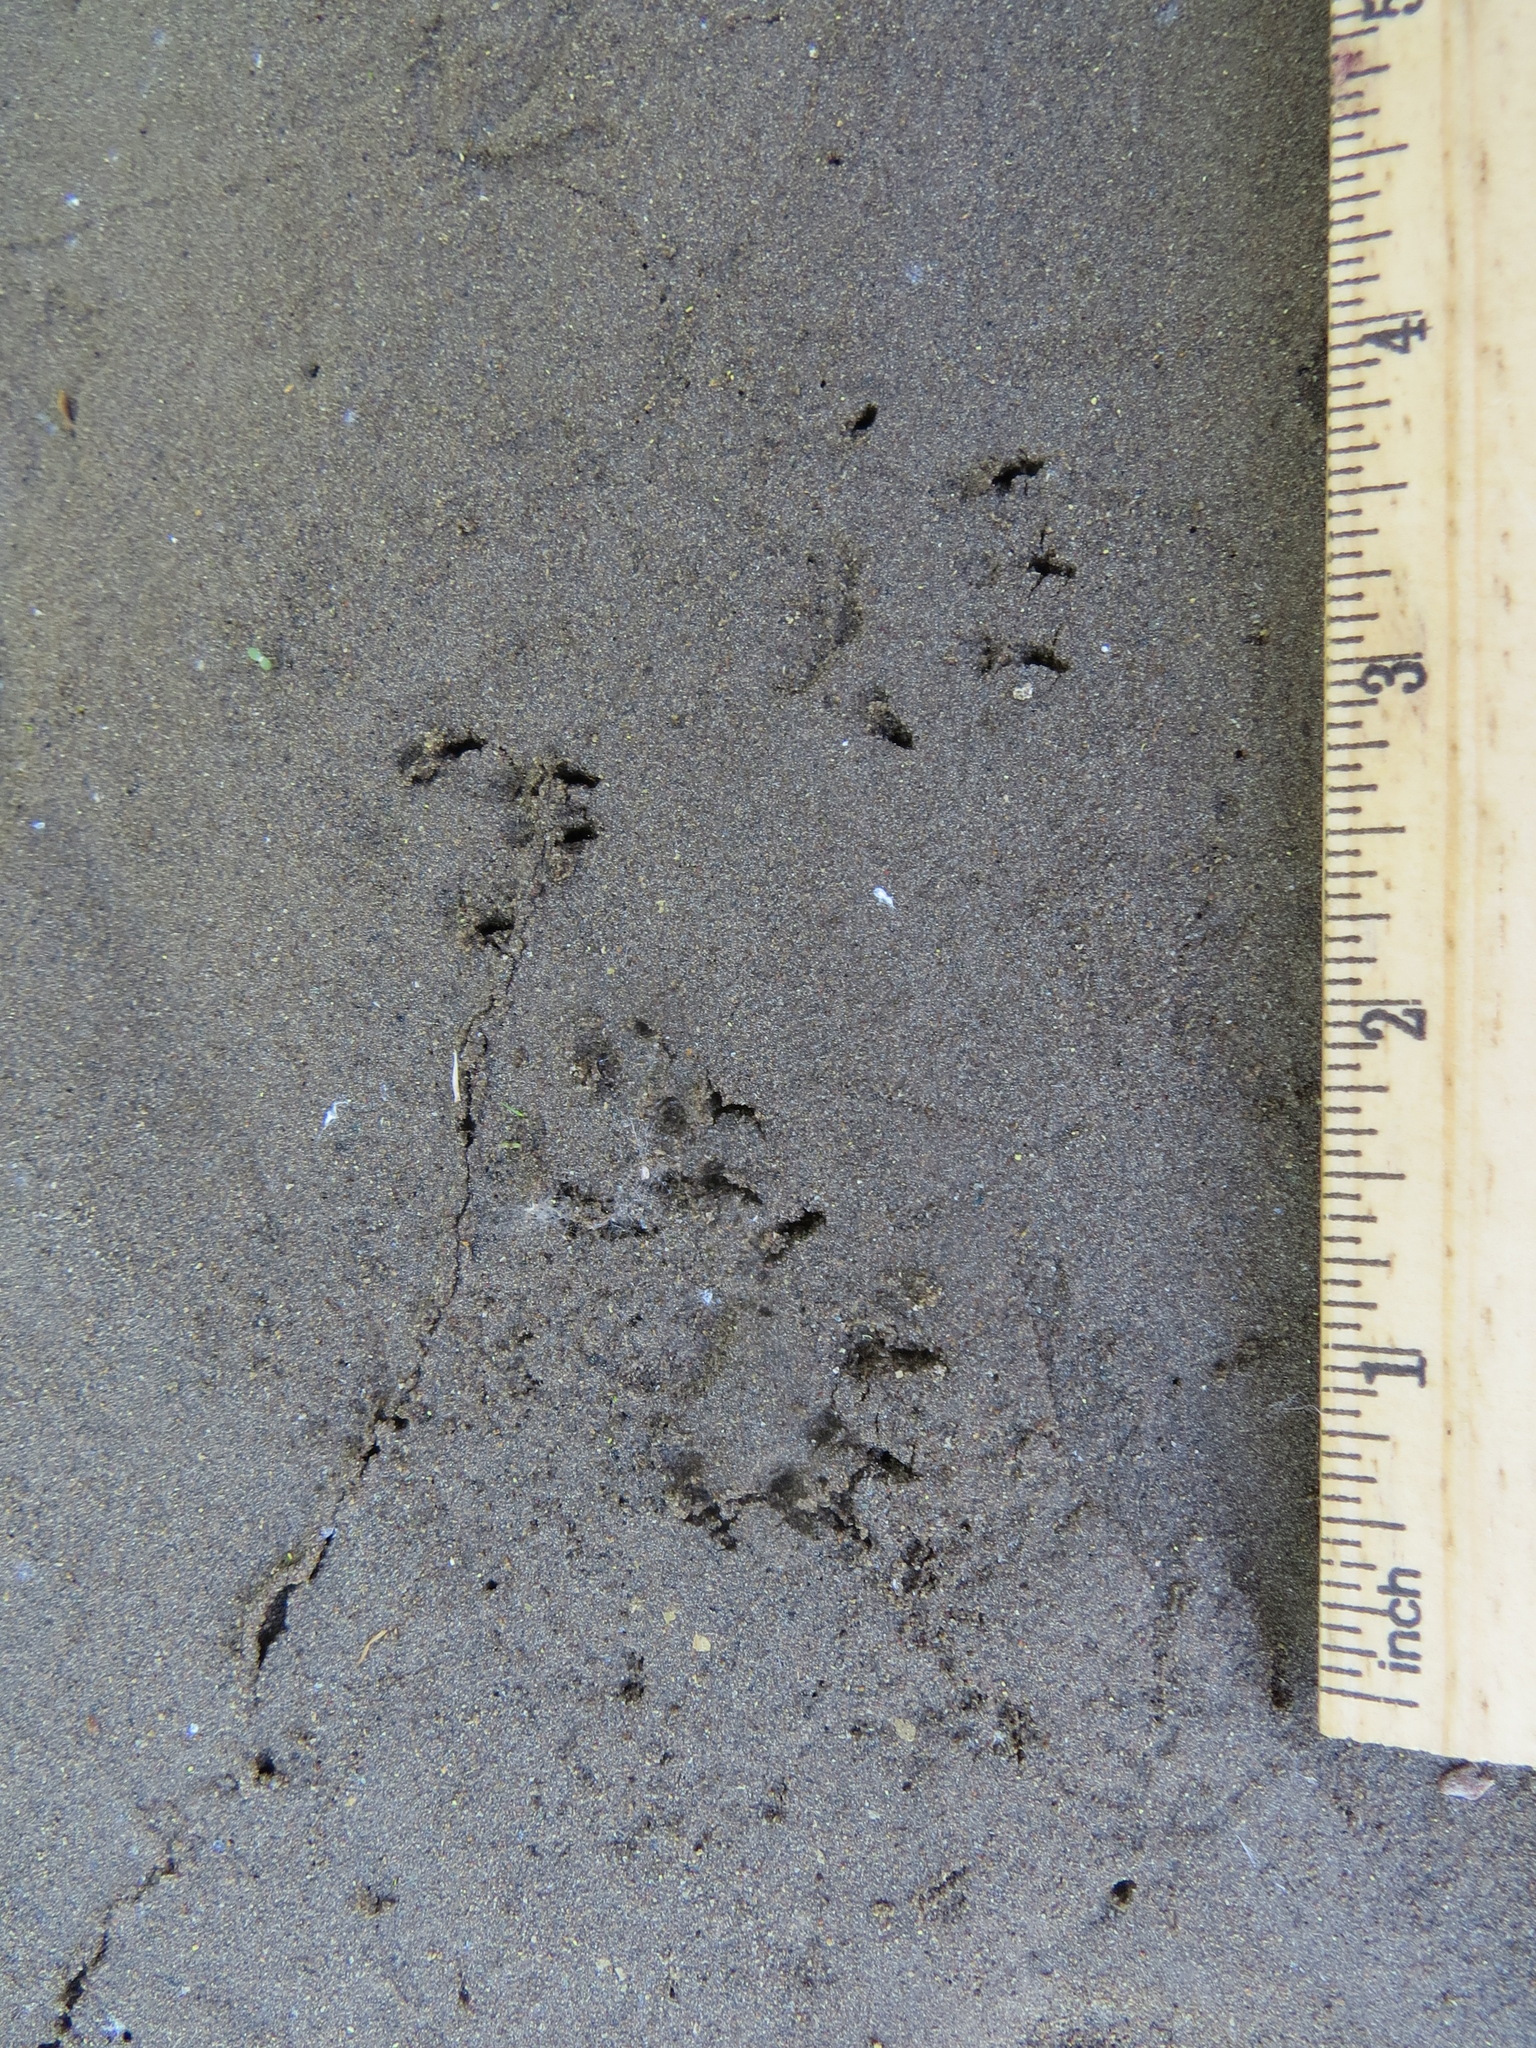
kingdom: Animalia
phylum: Chordata
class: Mammalia
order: Rodentia
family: Sciuridae
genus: Otospermophilus
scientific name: Otospermophilus beecheyi
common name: California ground squirrel
